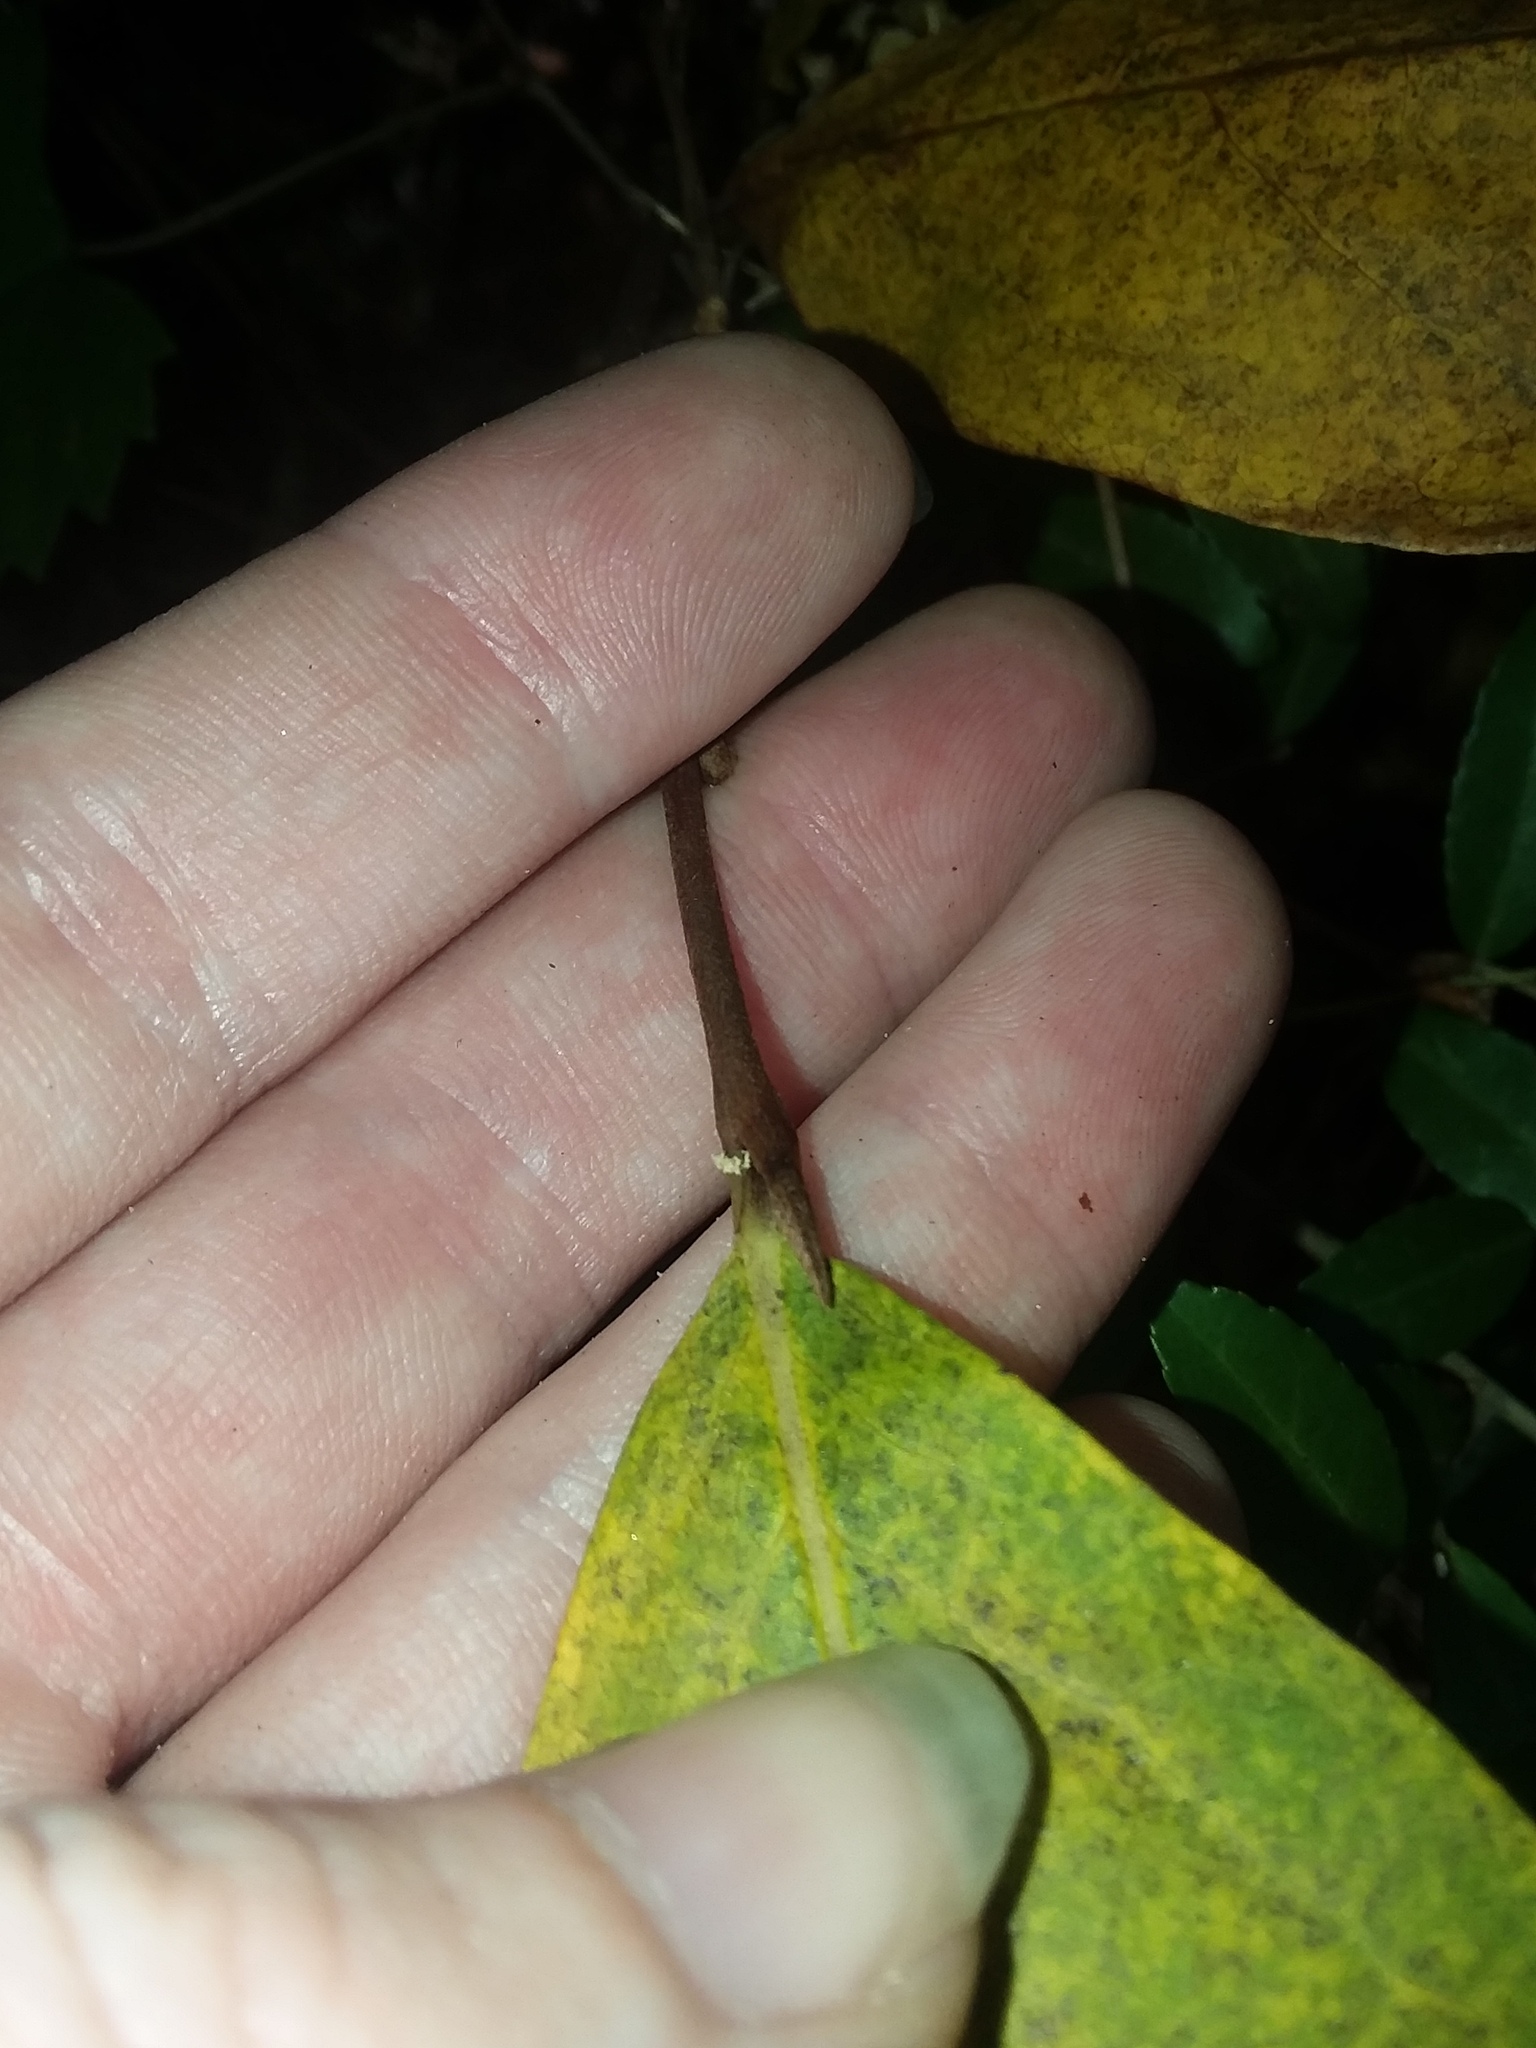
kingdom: Plantae
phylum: Tracheophyta
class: Magnoliopsida
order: Magnoliales
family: Annonaceae
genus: Asimina
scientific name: Asimina parviflora
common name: Dwarf pawpaw
